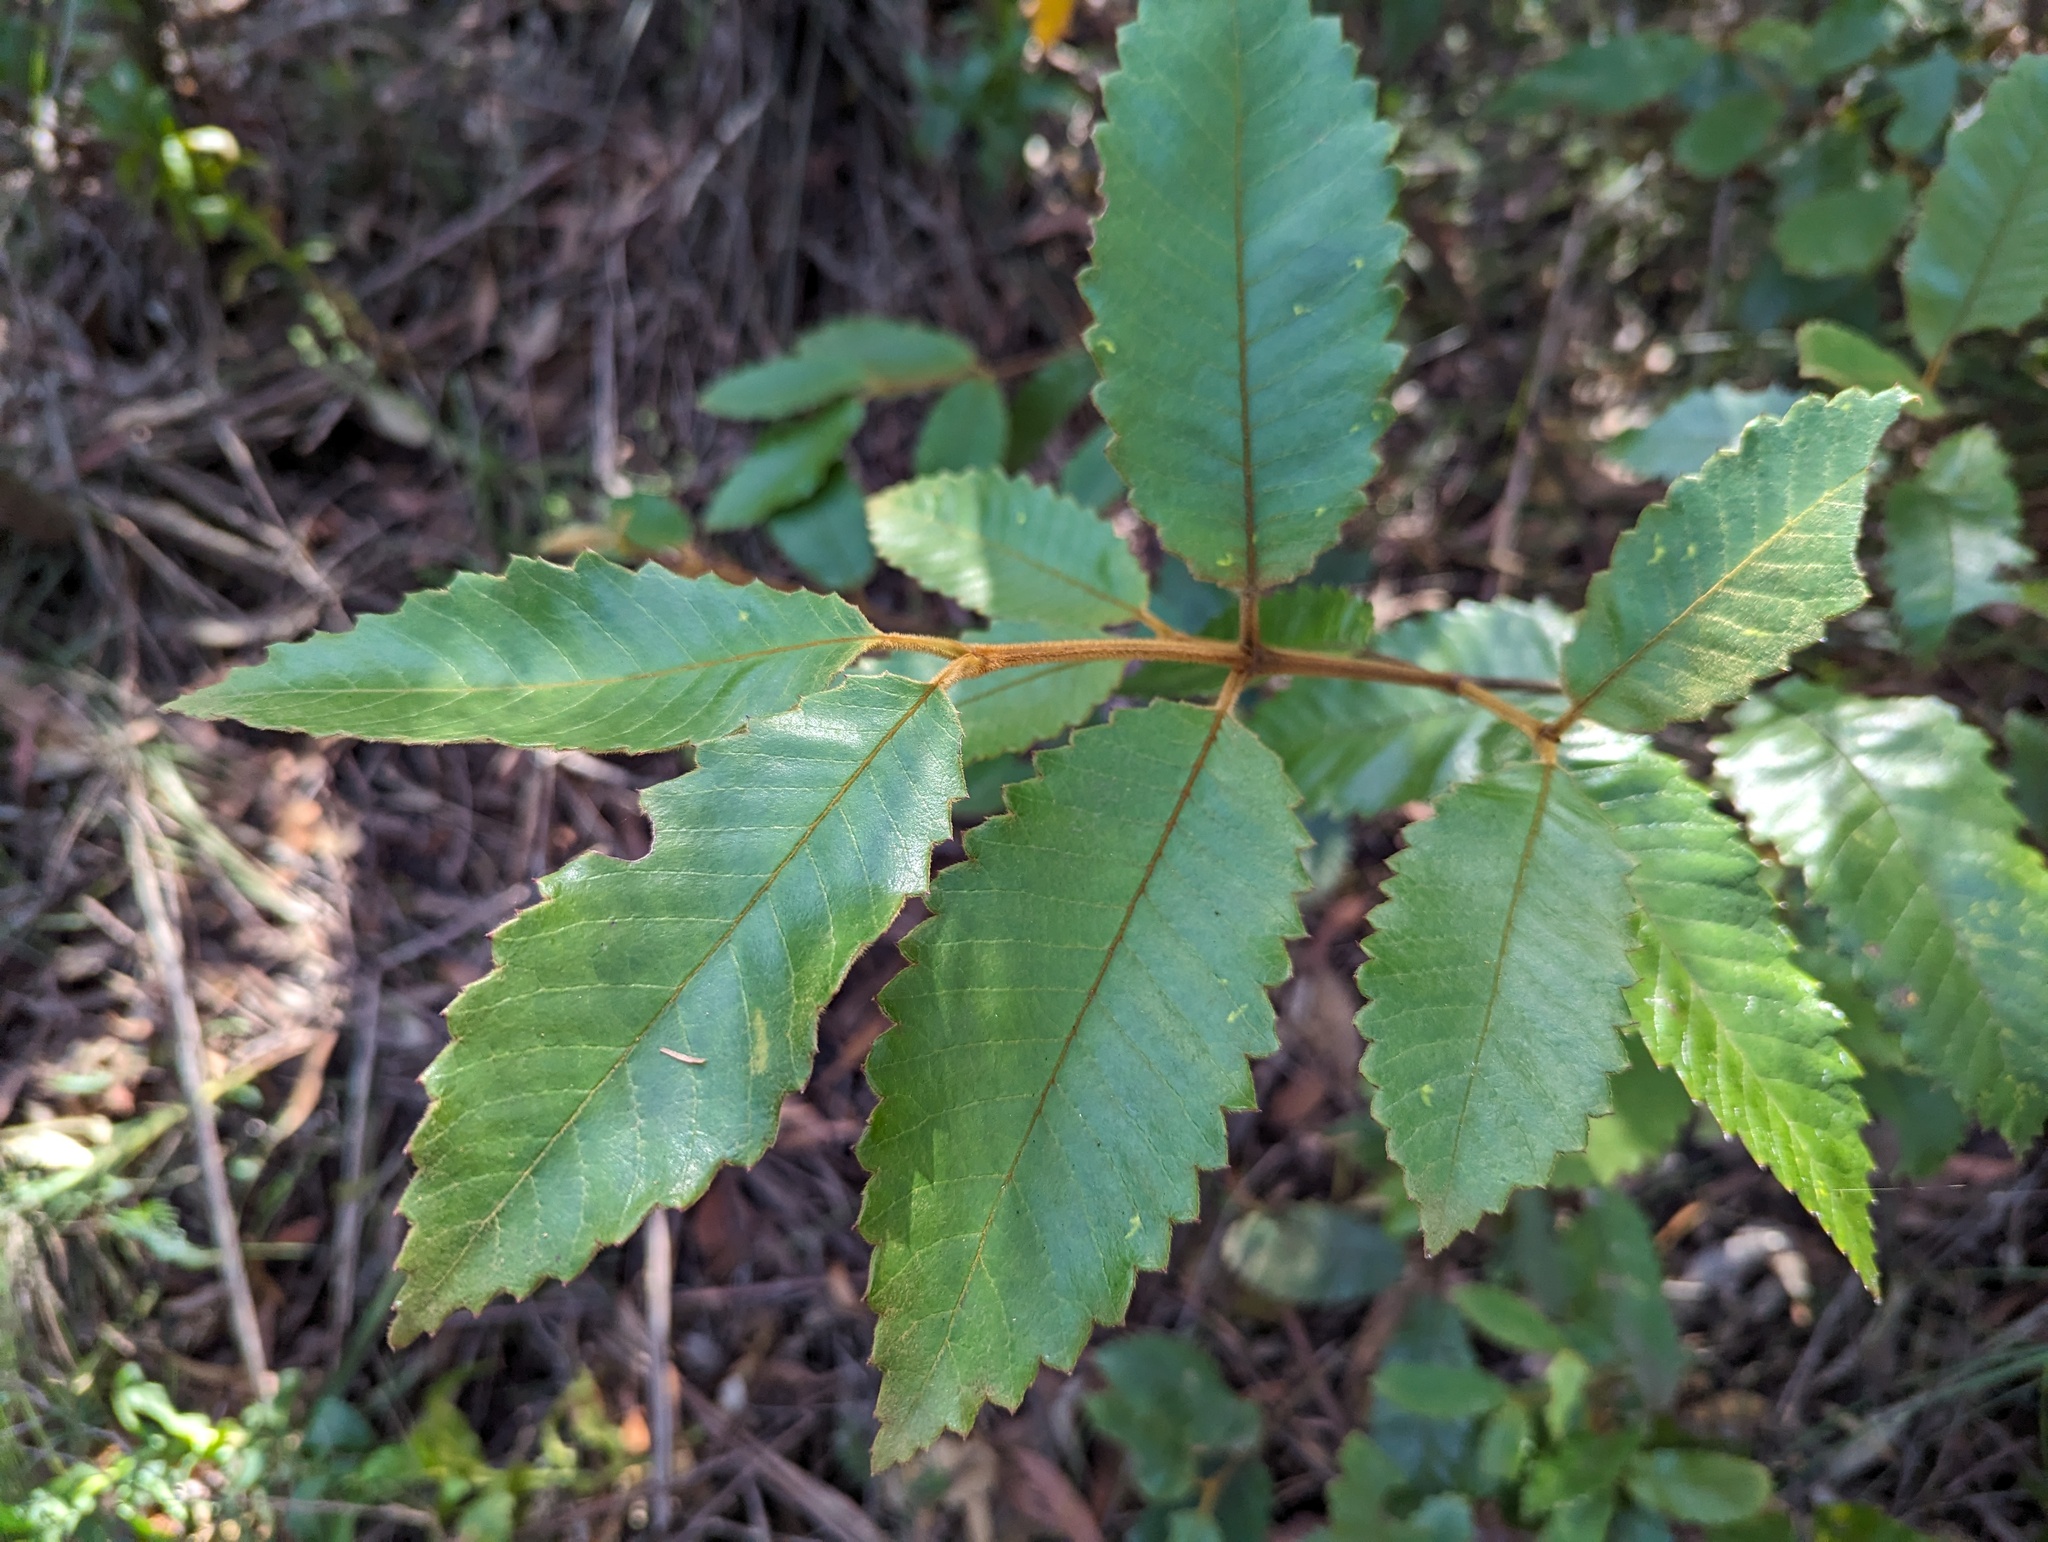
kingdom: Plantae
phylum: Tracheophyta
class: Magnoliopsida
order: Oxalidales
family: Cunoniaceae
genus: Callicoma
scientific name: Callicoma serratifolia
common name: Black wattle
